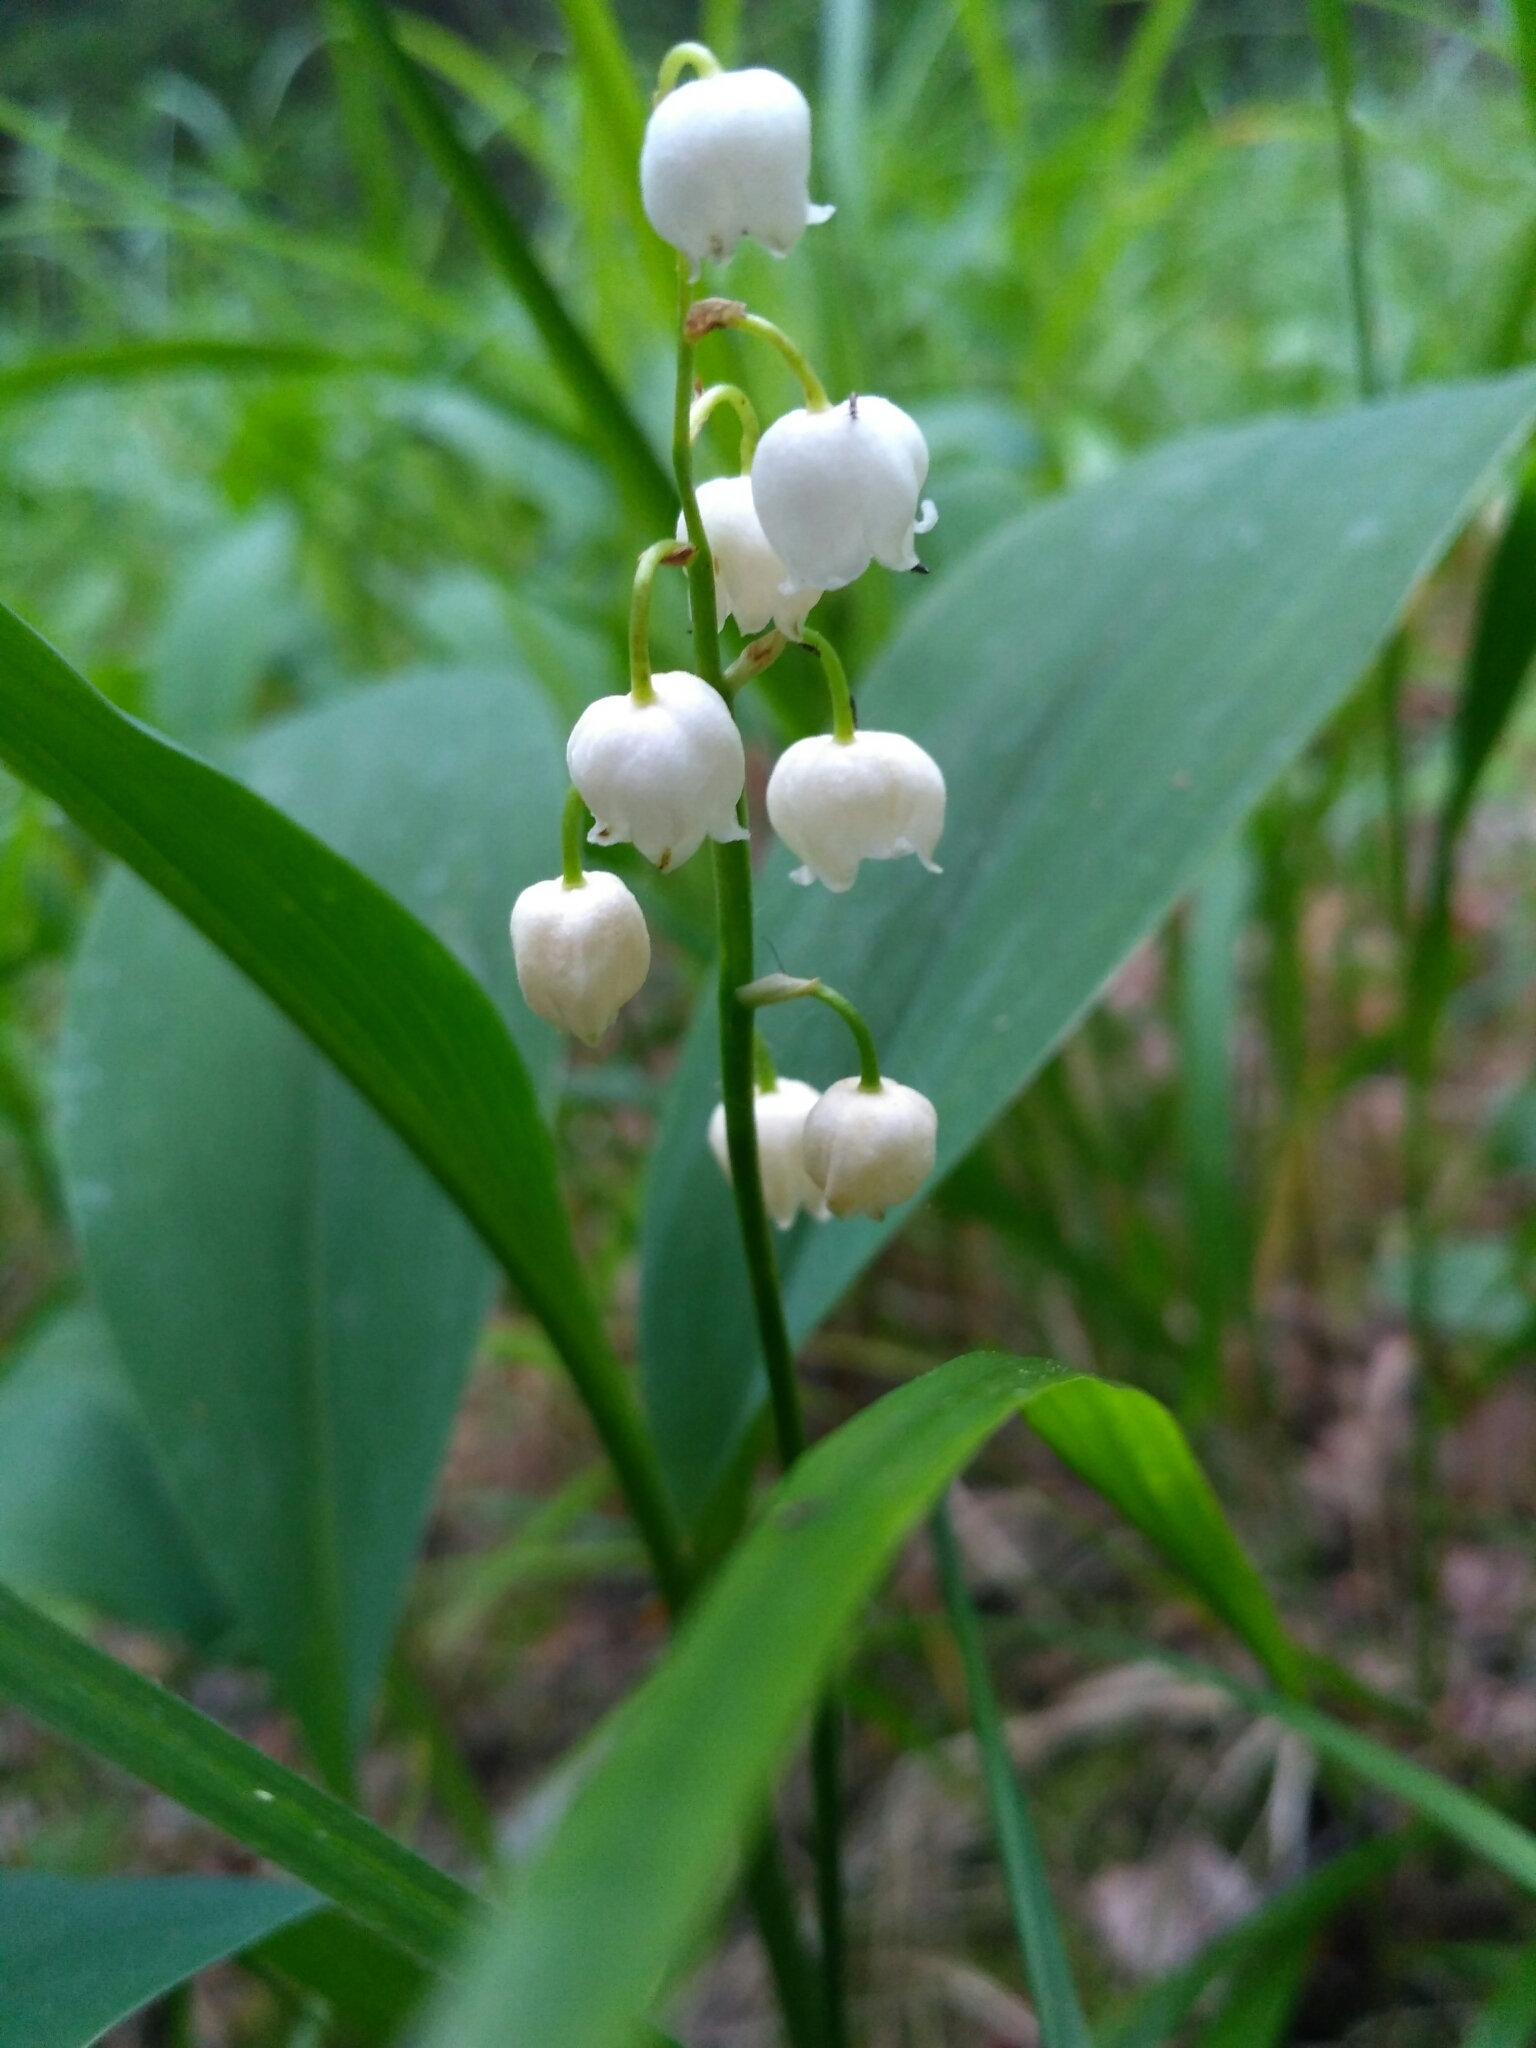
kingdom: Plantae
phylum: Tracheophyta
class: Liliopsida
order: Asparagales
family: Asparagaceae
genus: Convallaria
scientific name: Convallaria majalis
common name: Lily-of-the-valley
